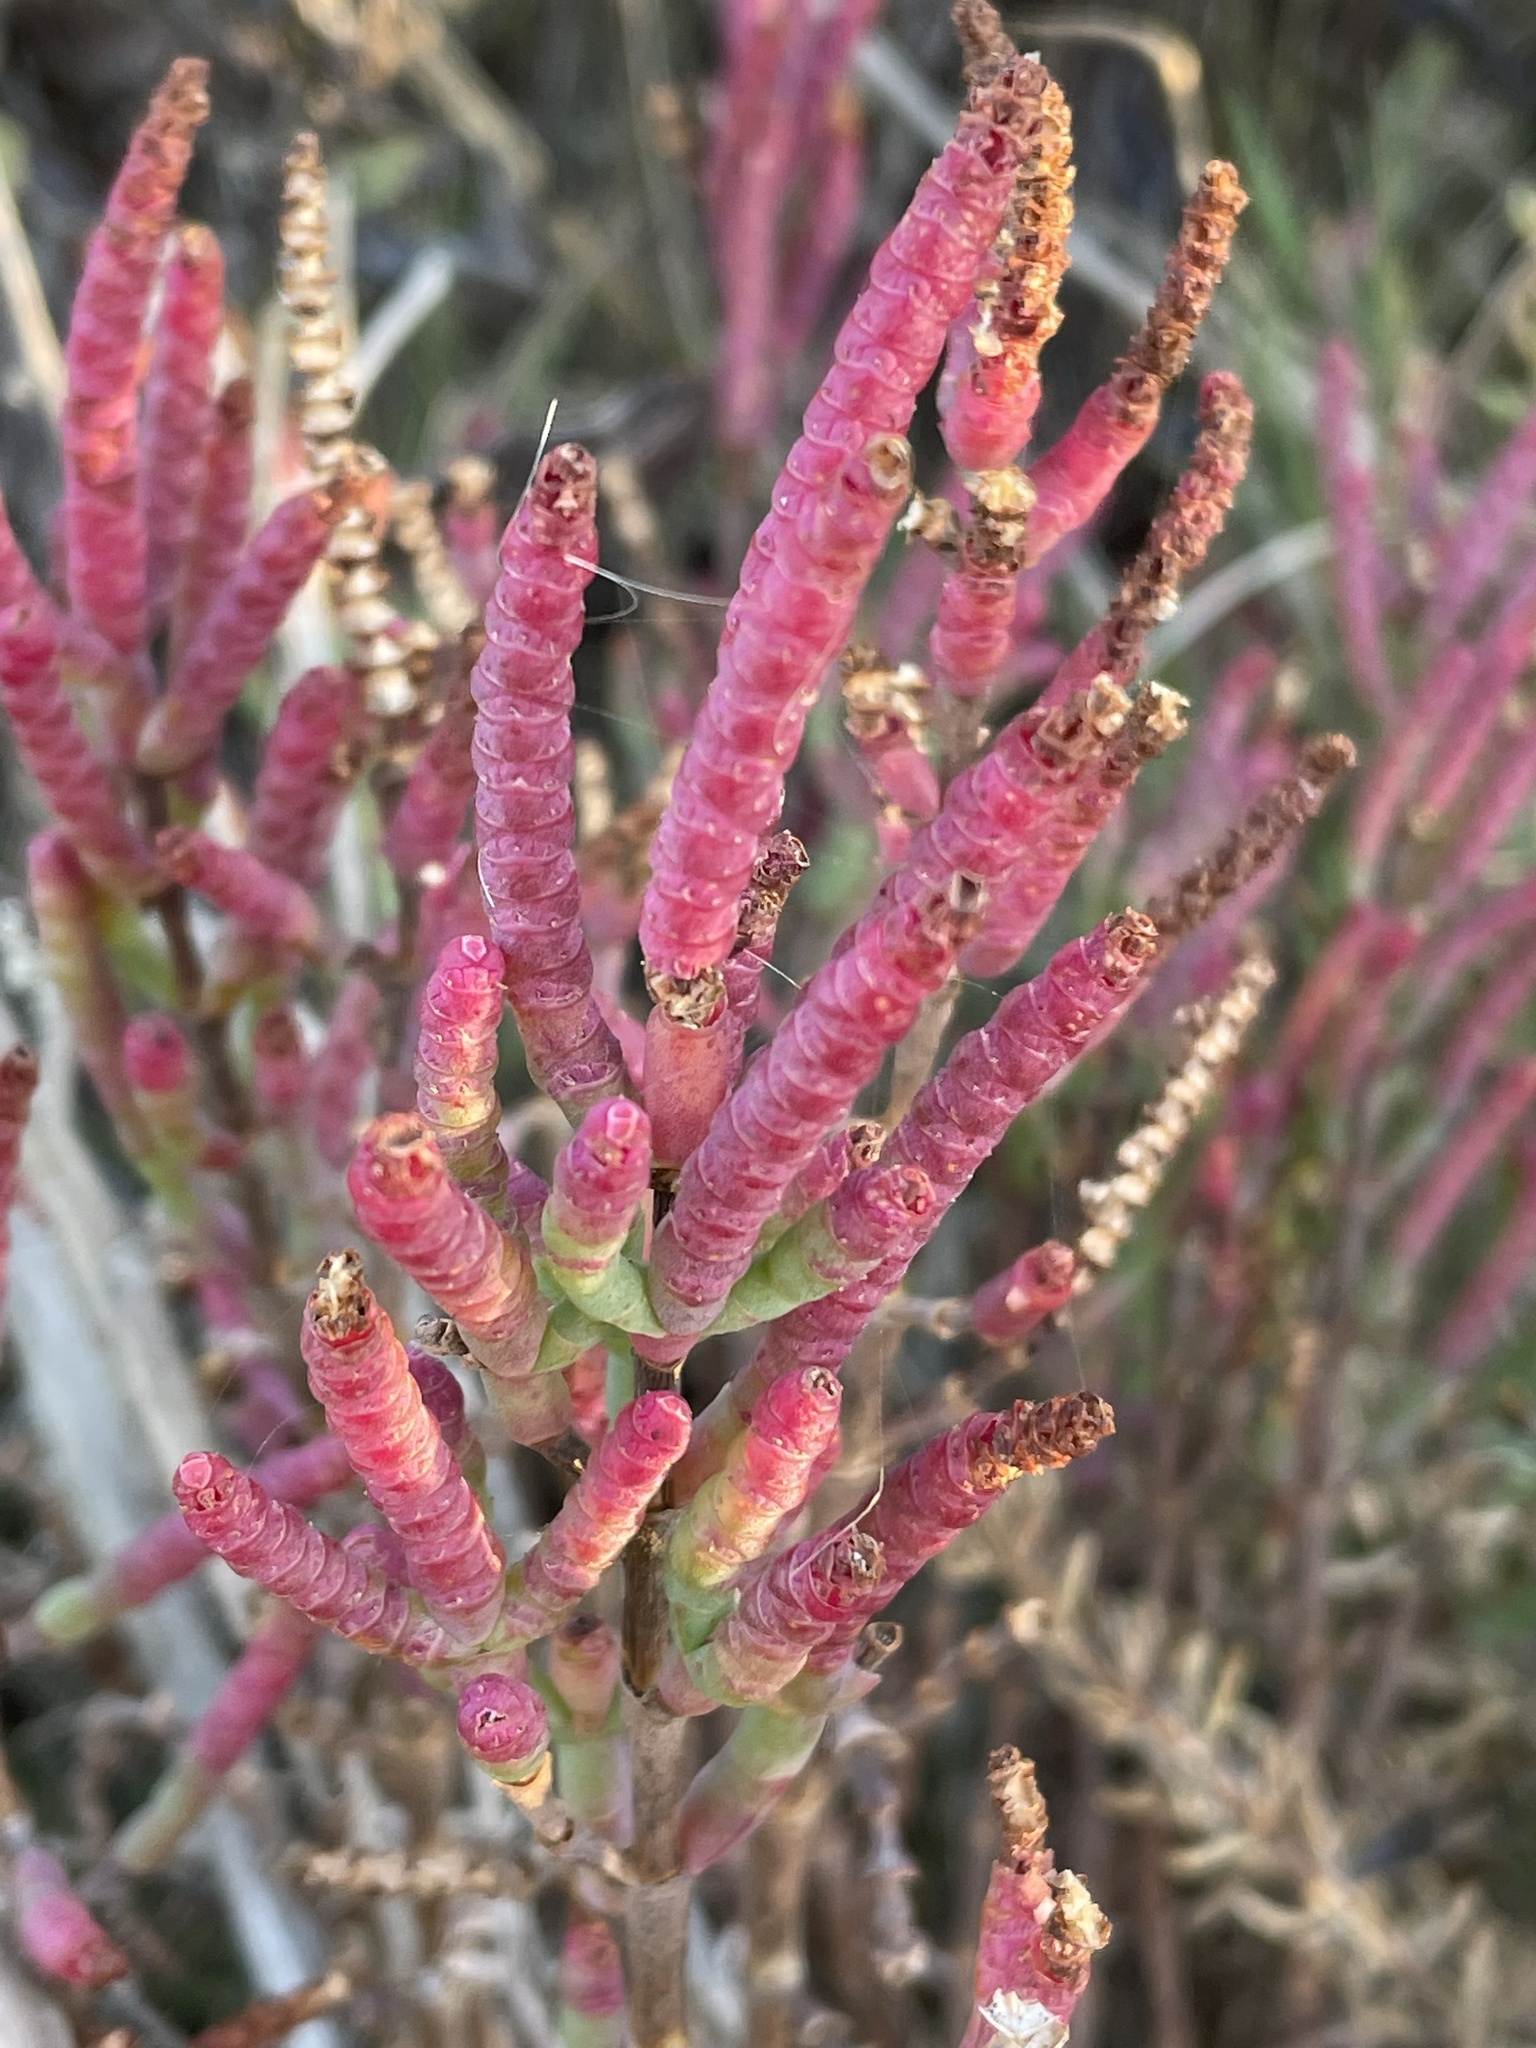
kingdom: Plantae
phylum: Tracheophyta
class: Magnoliopsida
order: Caryophyllales
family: Amaranthaceae
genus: Salicornia
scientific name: Salicornia pacifica
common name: Pacific glasswort
